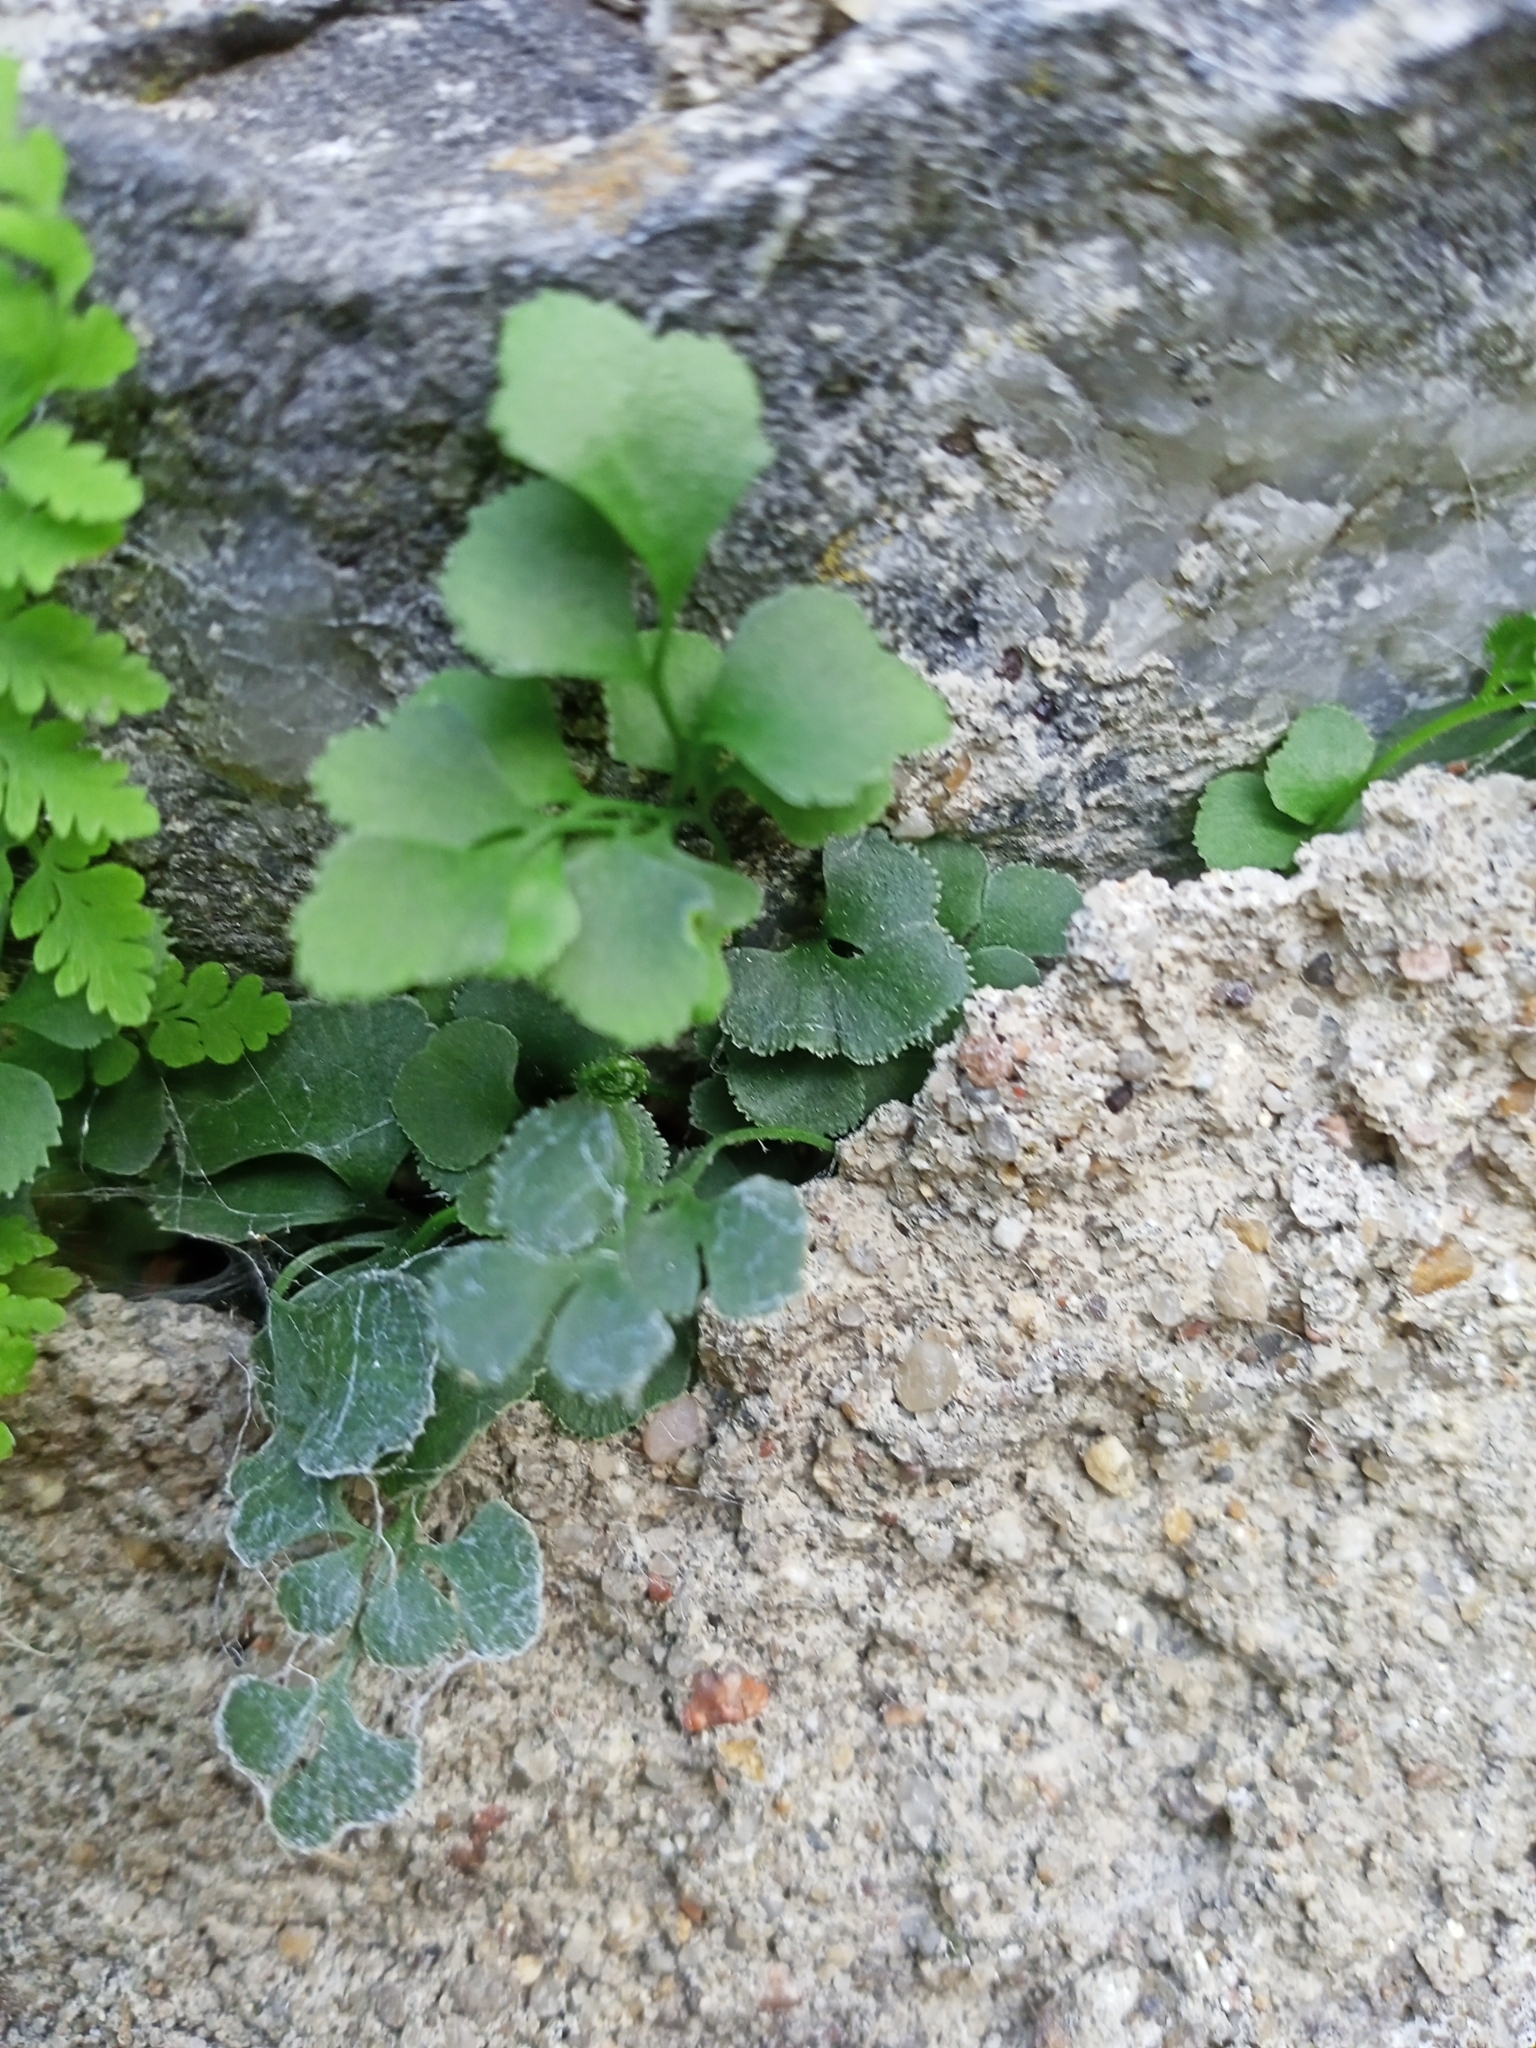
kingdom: Plantae
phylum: Tracheophyta
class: Polypodiopsida
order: Polypodiales
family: Aspleniaceae
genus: Asplenium
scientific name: Asplenium ruta-muraria
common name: Wall-rue
